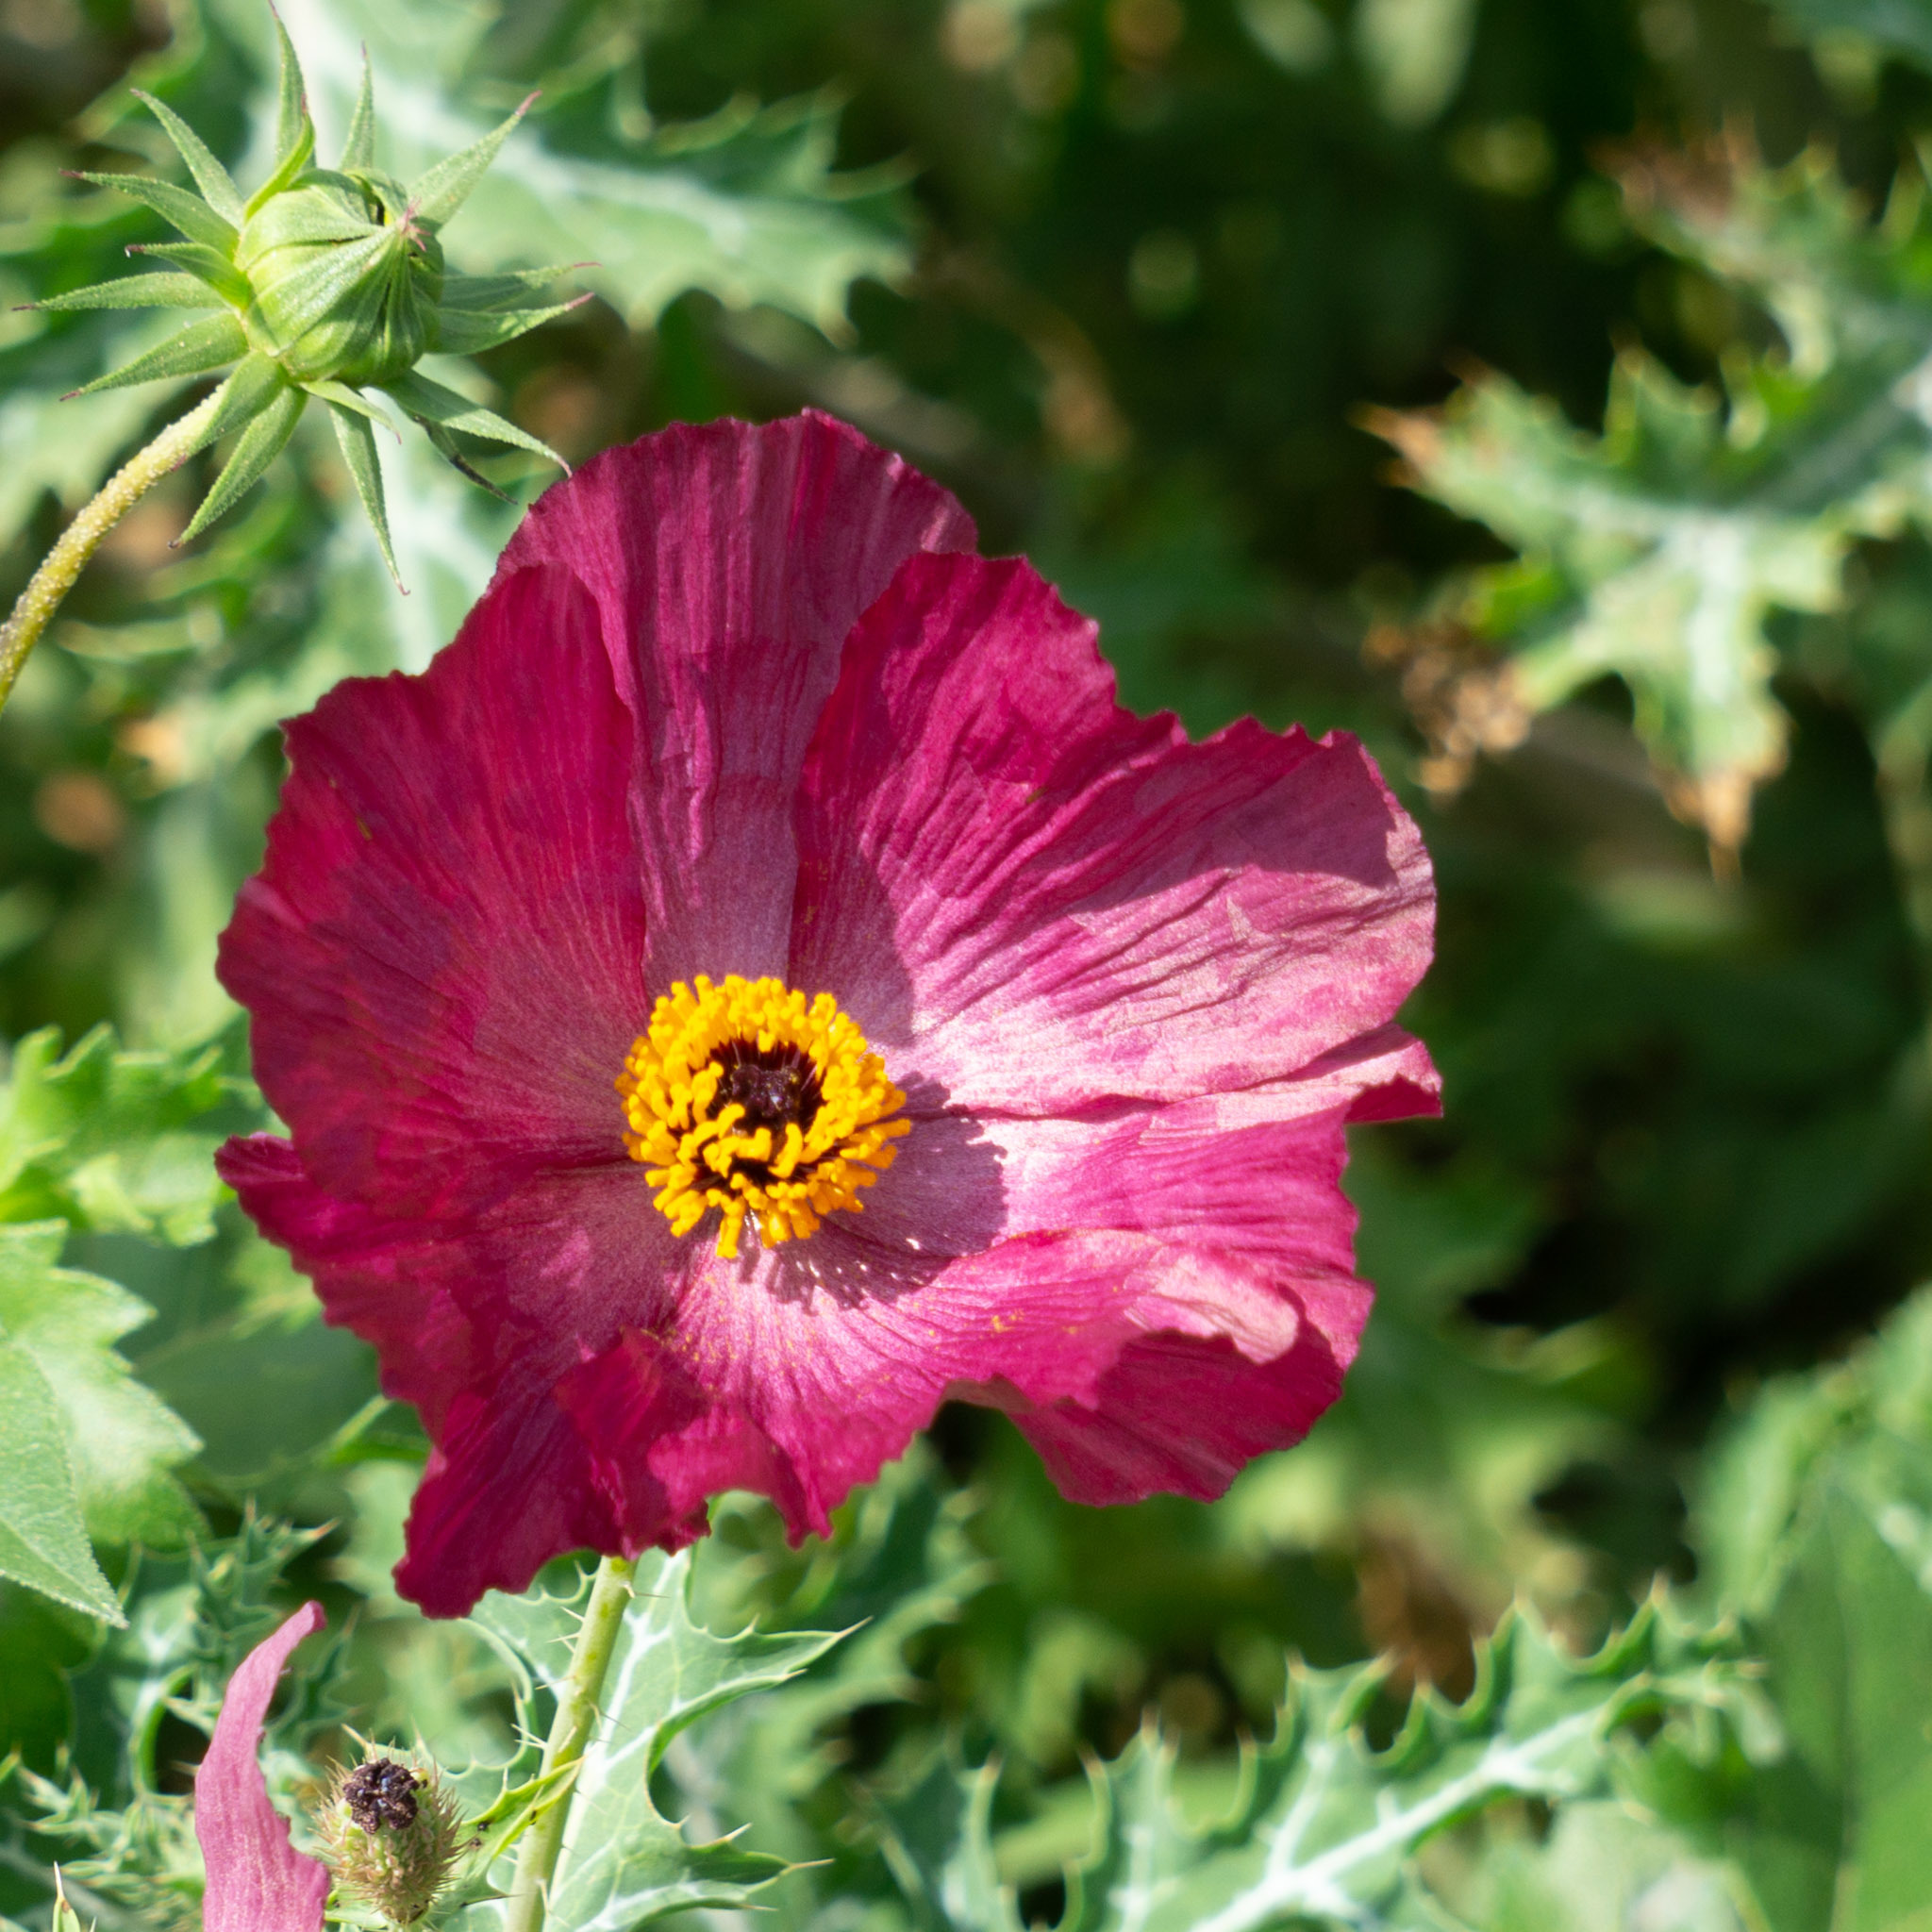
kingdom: Plantae
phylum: Tracheophyta
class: Magnoliopsida
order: Ranunculales
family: Papaveraceae
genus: Argemone
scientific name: Argemone sanguinea
